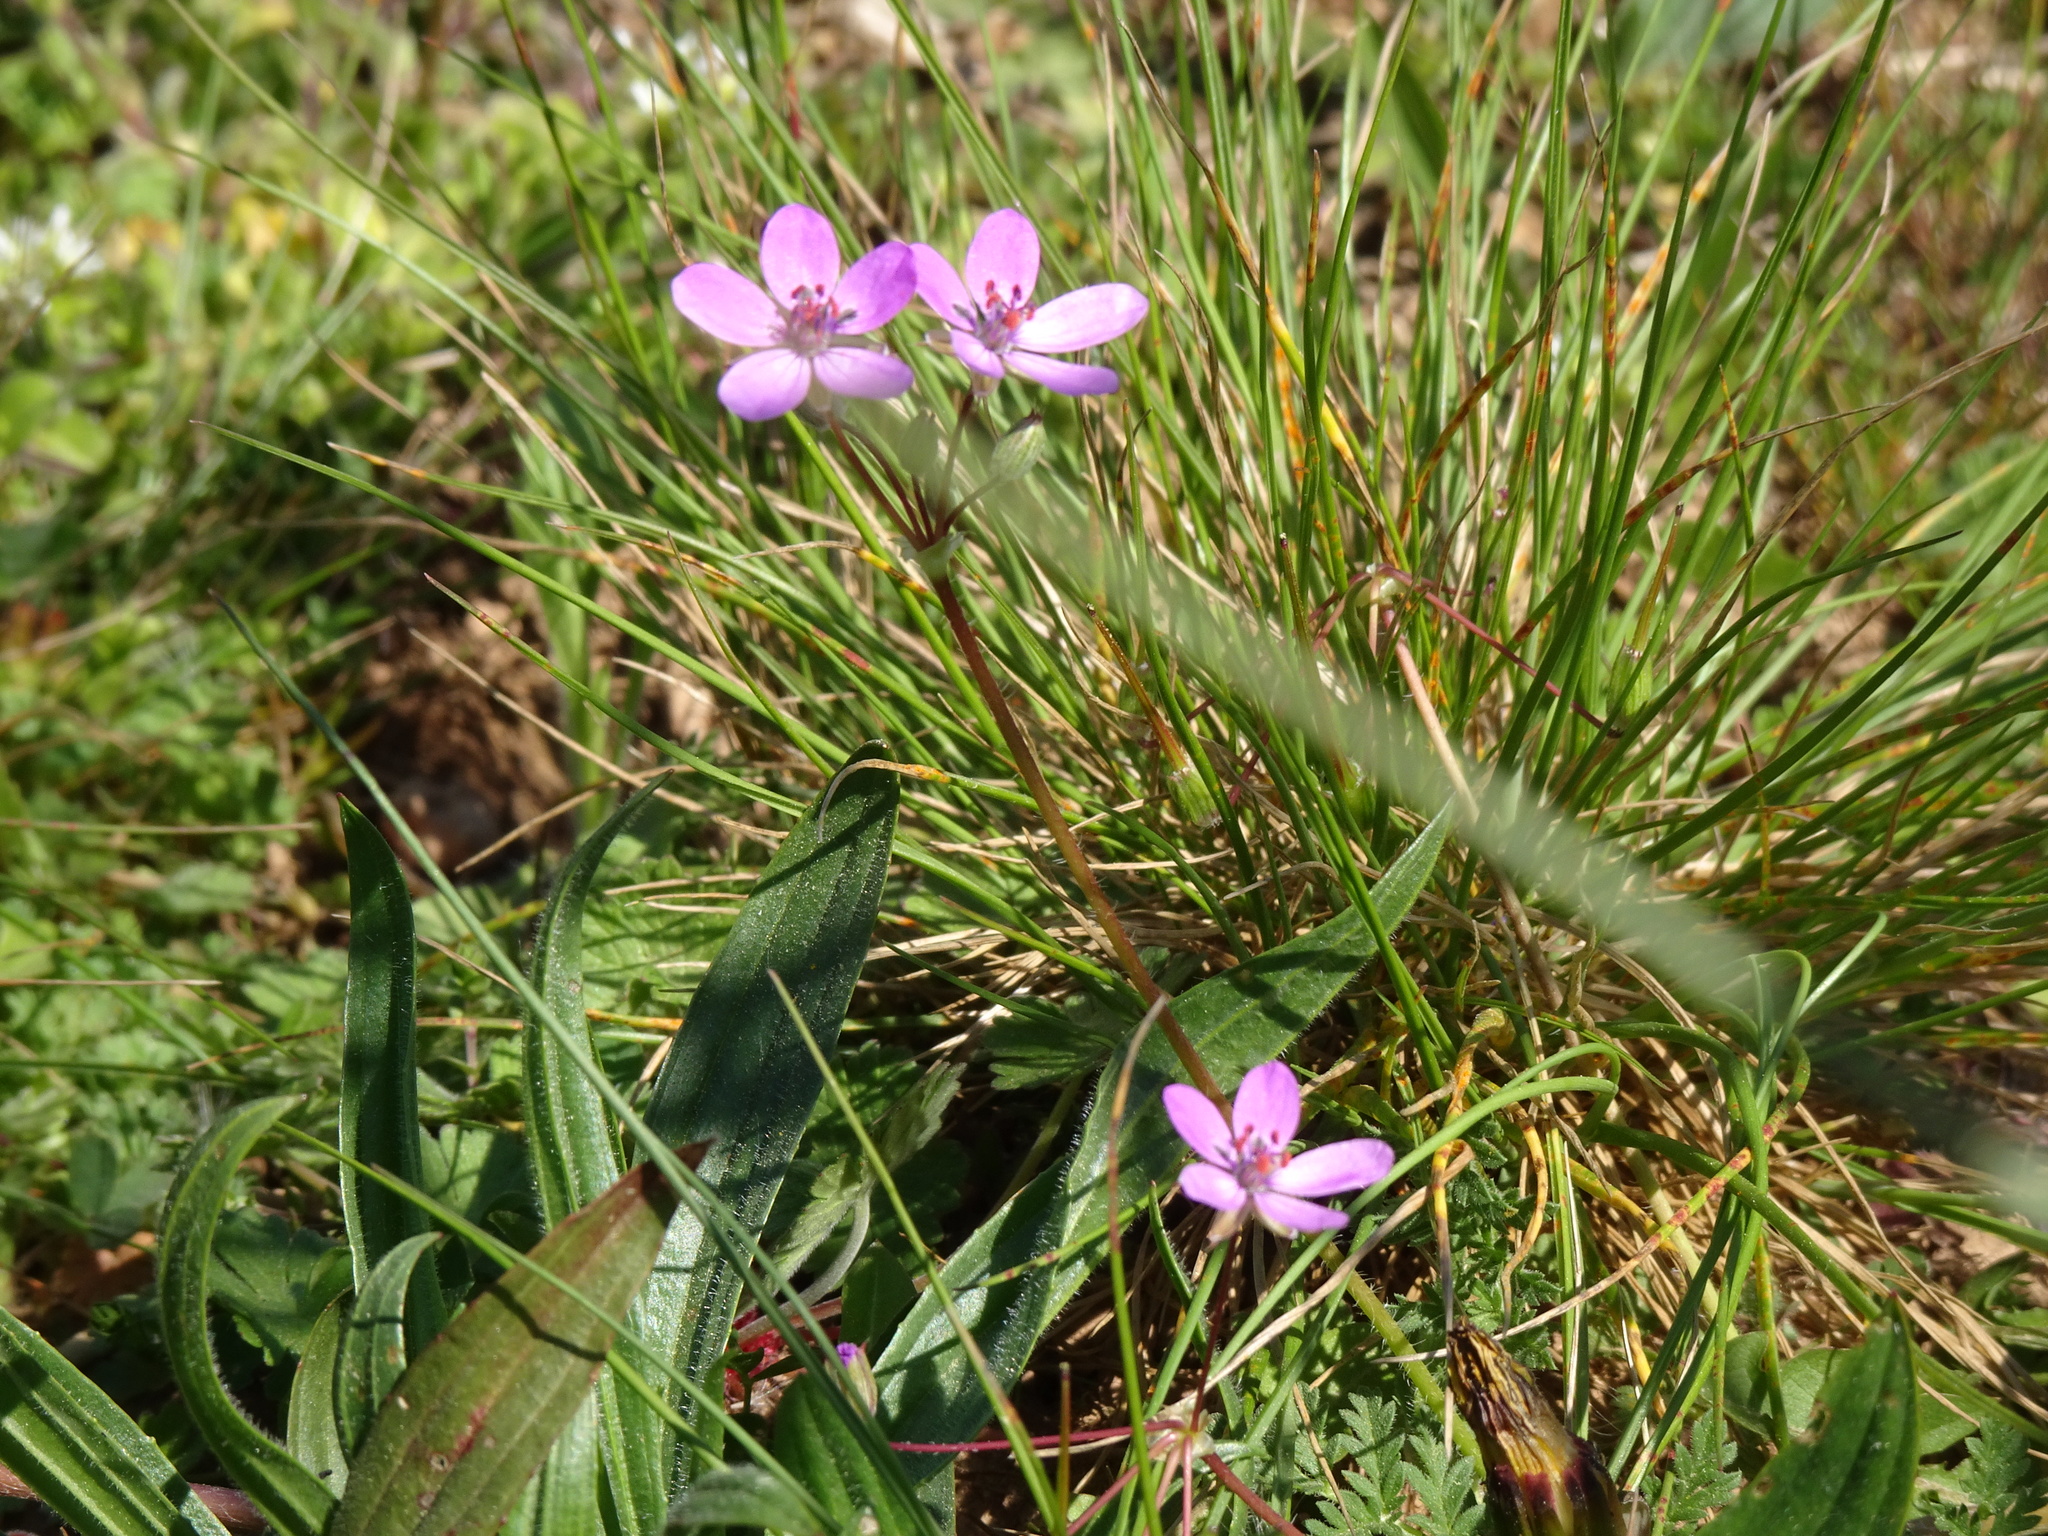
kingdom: Plantae
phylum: Tracheophyta
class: Magnoliopsida
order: Geraniales
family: Geraniaceae
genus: Erodium
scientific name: Erodium cicutarium
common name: Common stork's-bill
